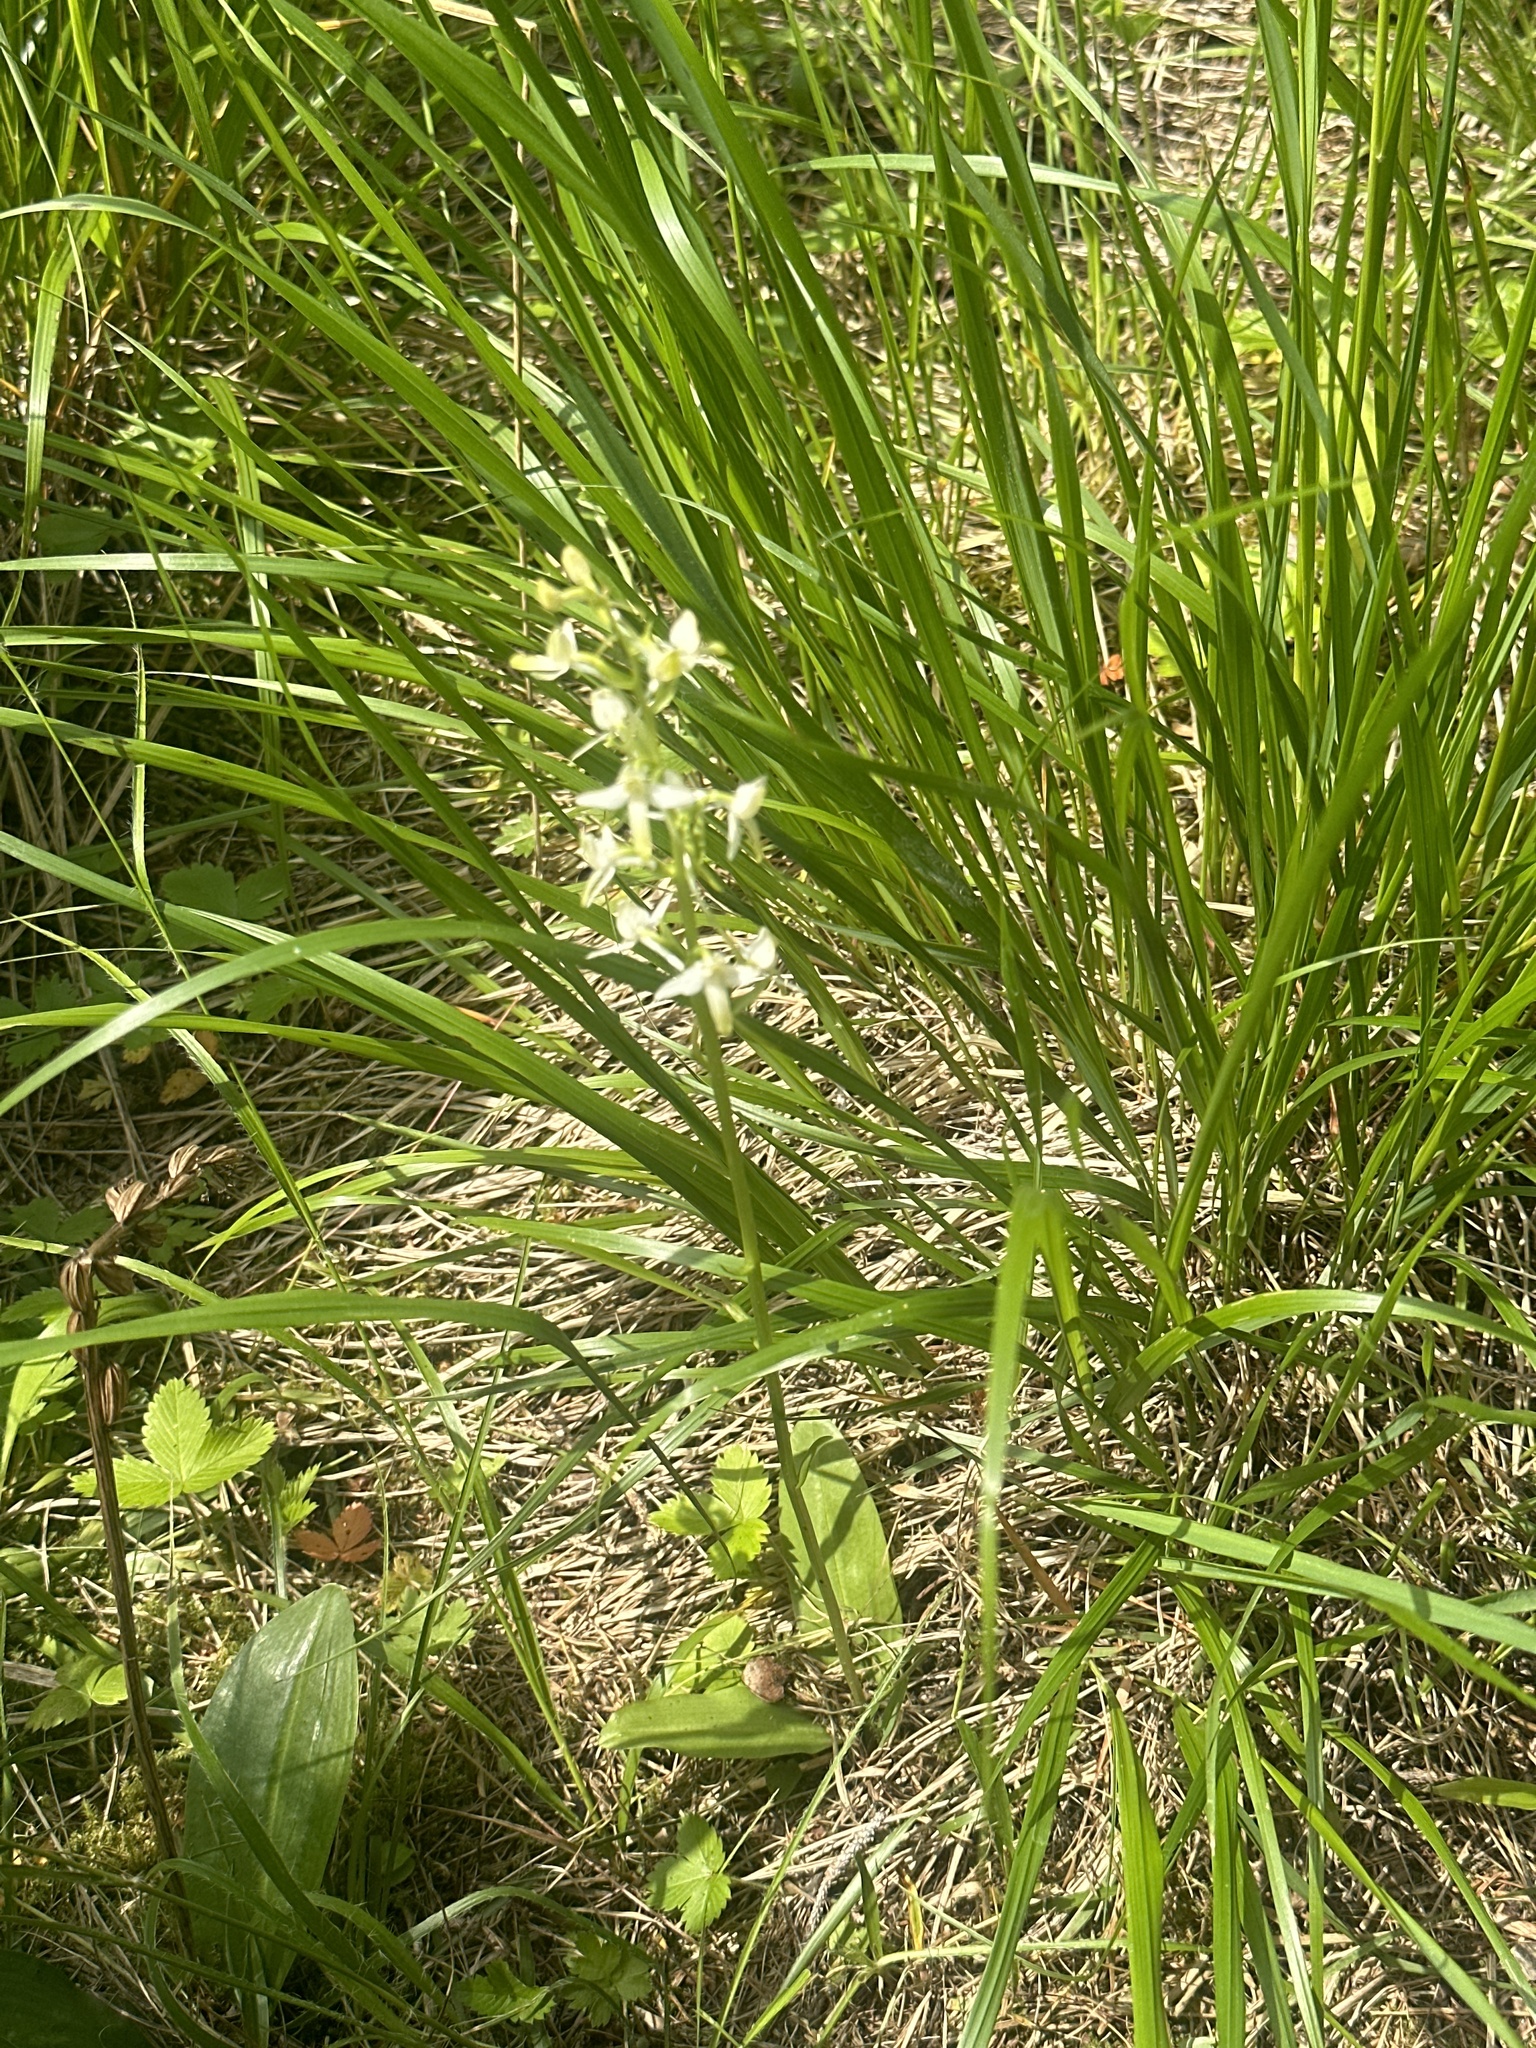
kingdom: Plantae
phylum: Tracheophyta
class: Liliopsida
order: Asparagales
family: Orchidaceae
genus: Platanthera
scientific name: Platanthera bifolia
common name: Lesser butterfly-orchid
